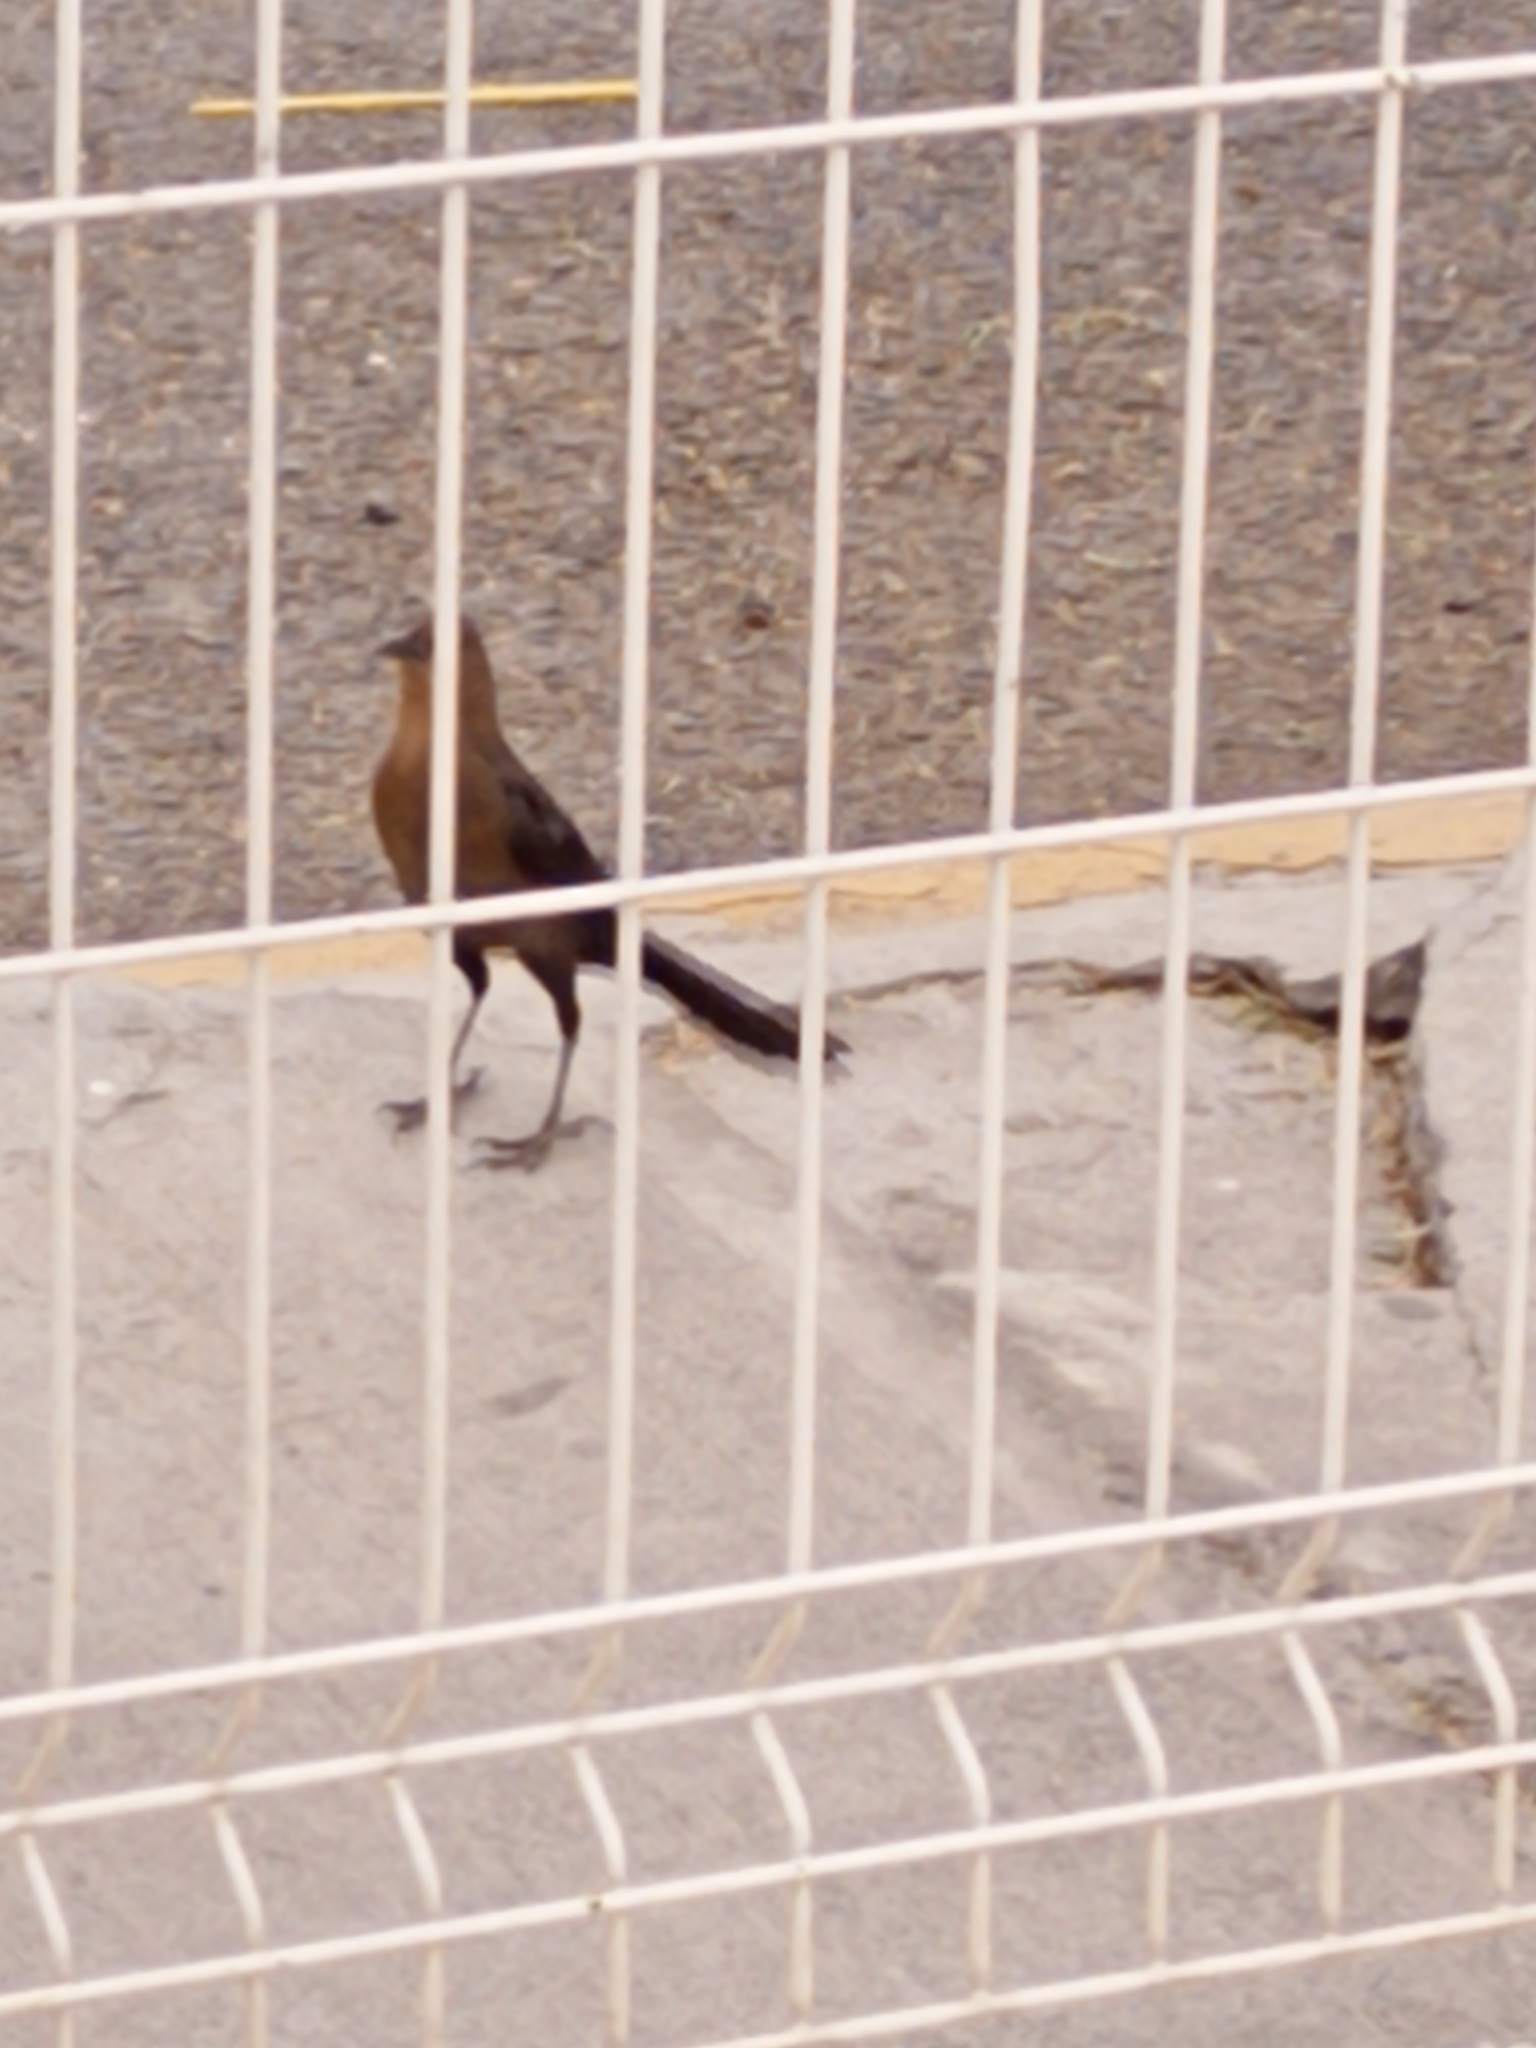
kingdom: Animalia
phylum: Chordata
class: Aves
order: Passeriformes
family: Icteridae
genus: Quiscalus
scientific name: Quiscalus mexicanus
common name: Great-tailed grackle
